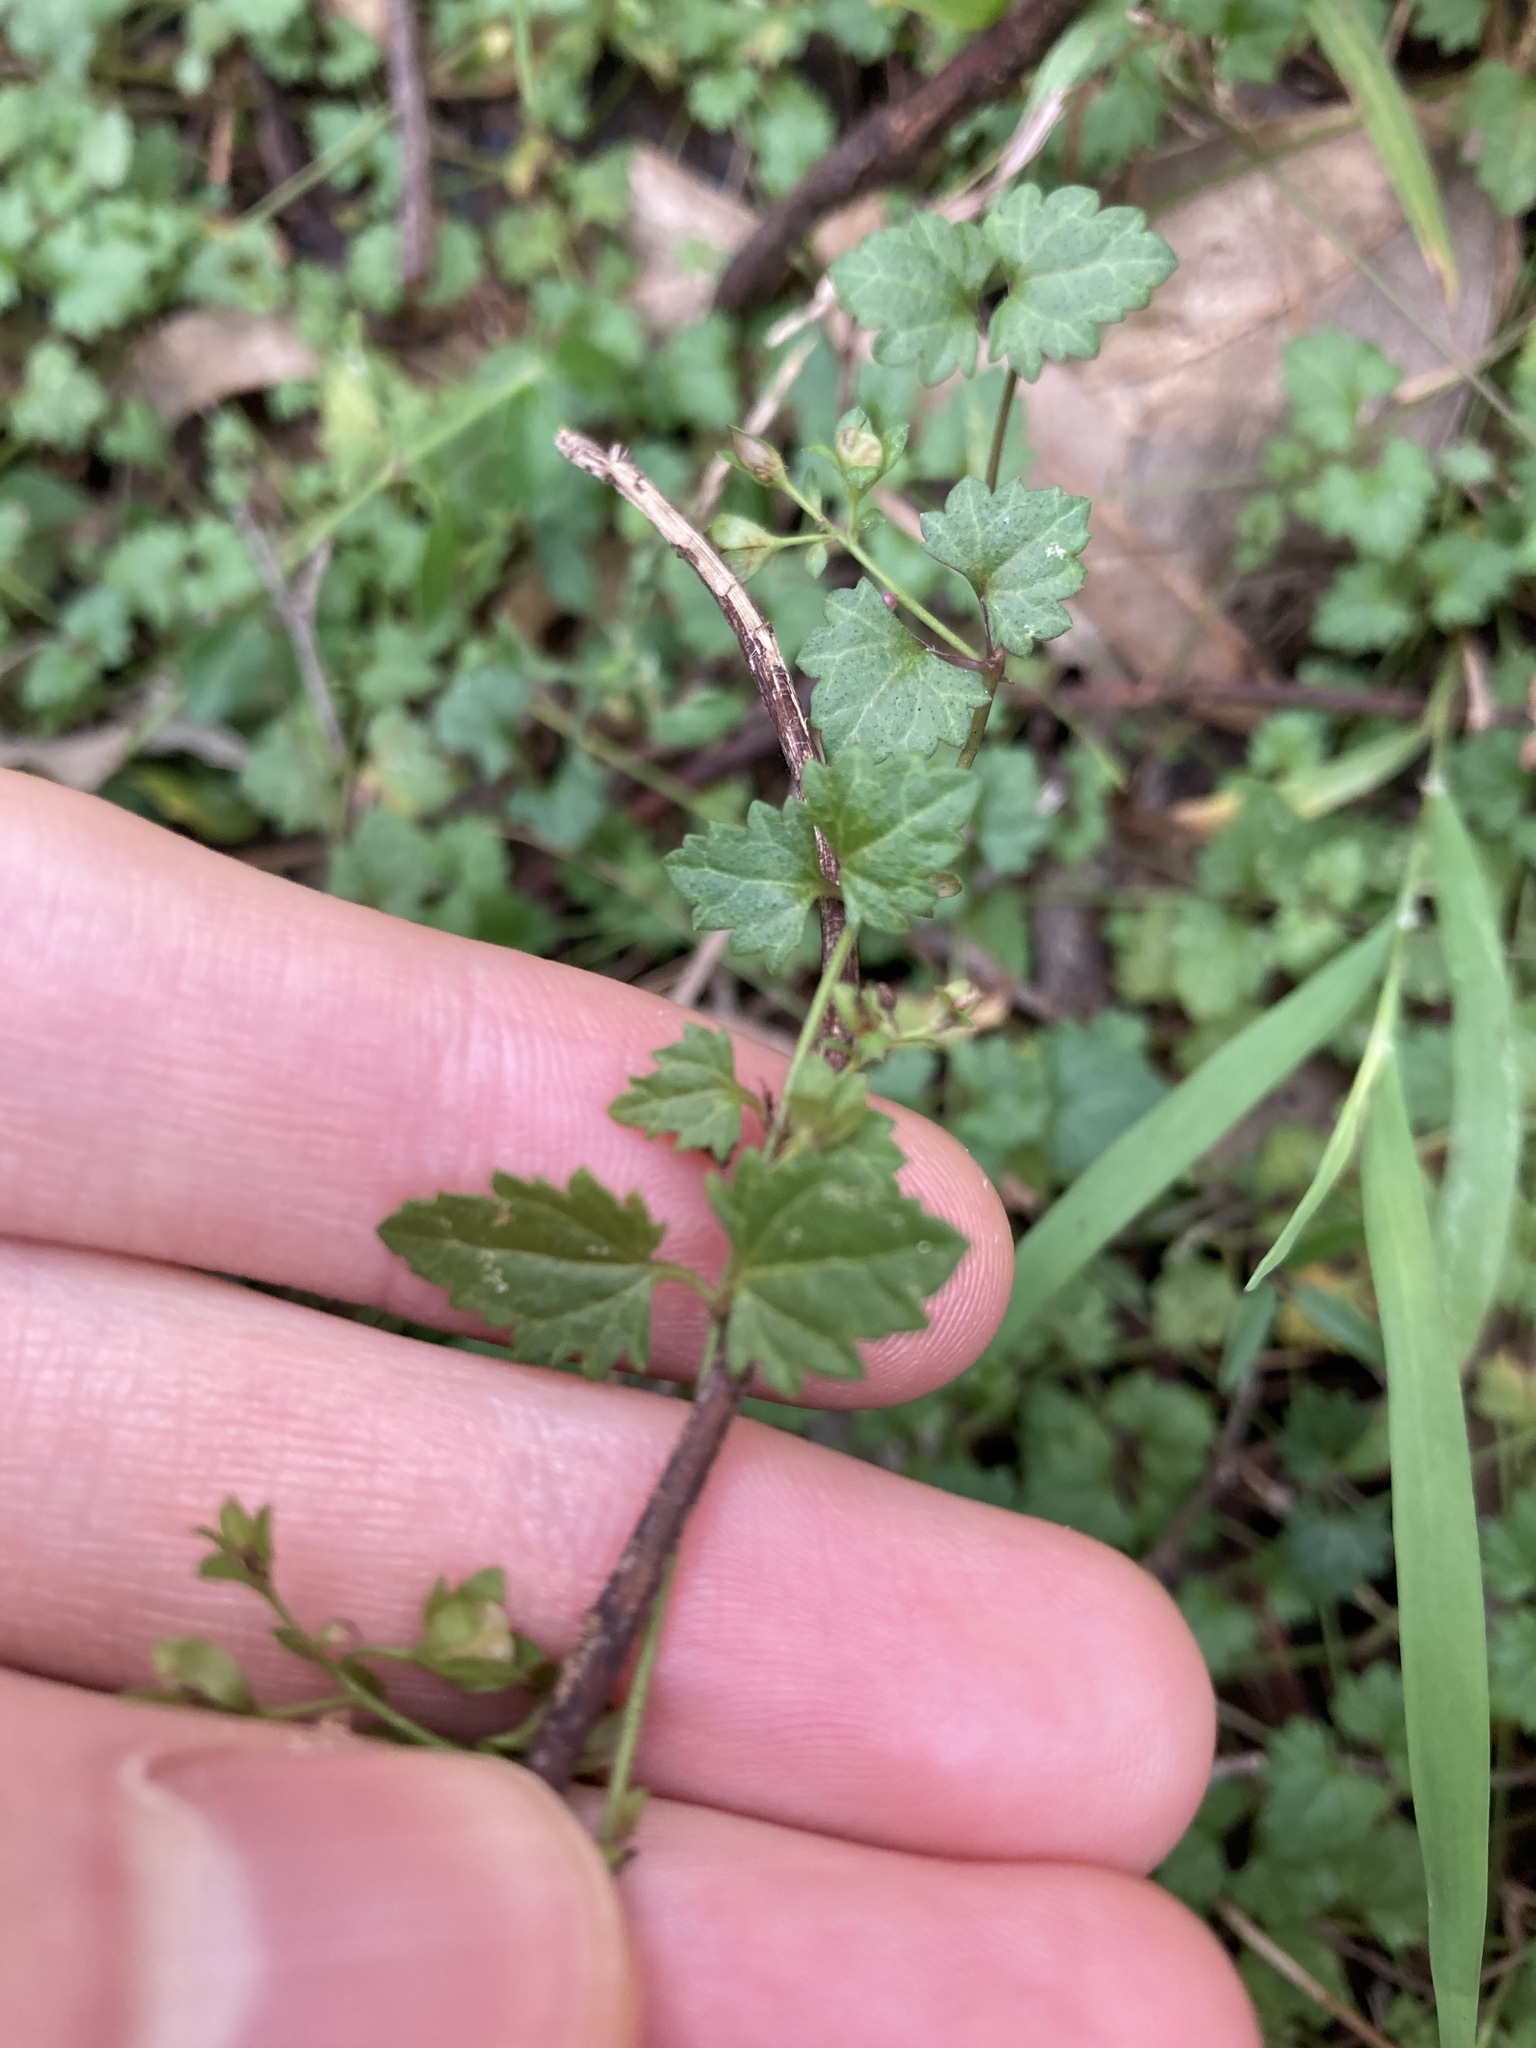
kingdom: Plantae
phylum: Tracheophyta
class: Magnoliopsida
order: Lamiales
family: Plantaginaceae
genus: Veronica
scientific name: Veronica plebeia
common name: Speedwell
